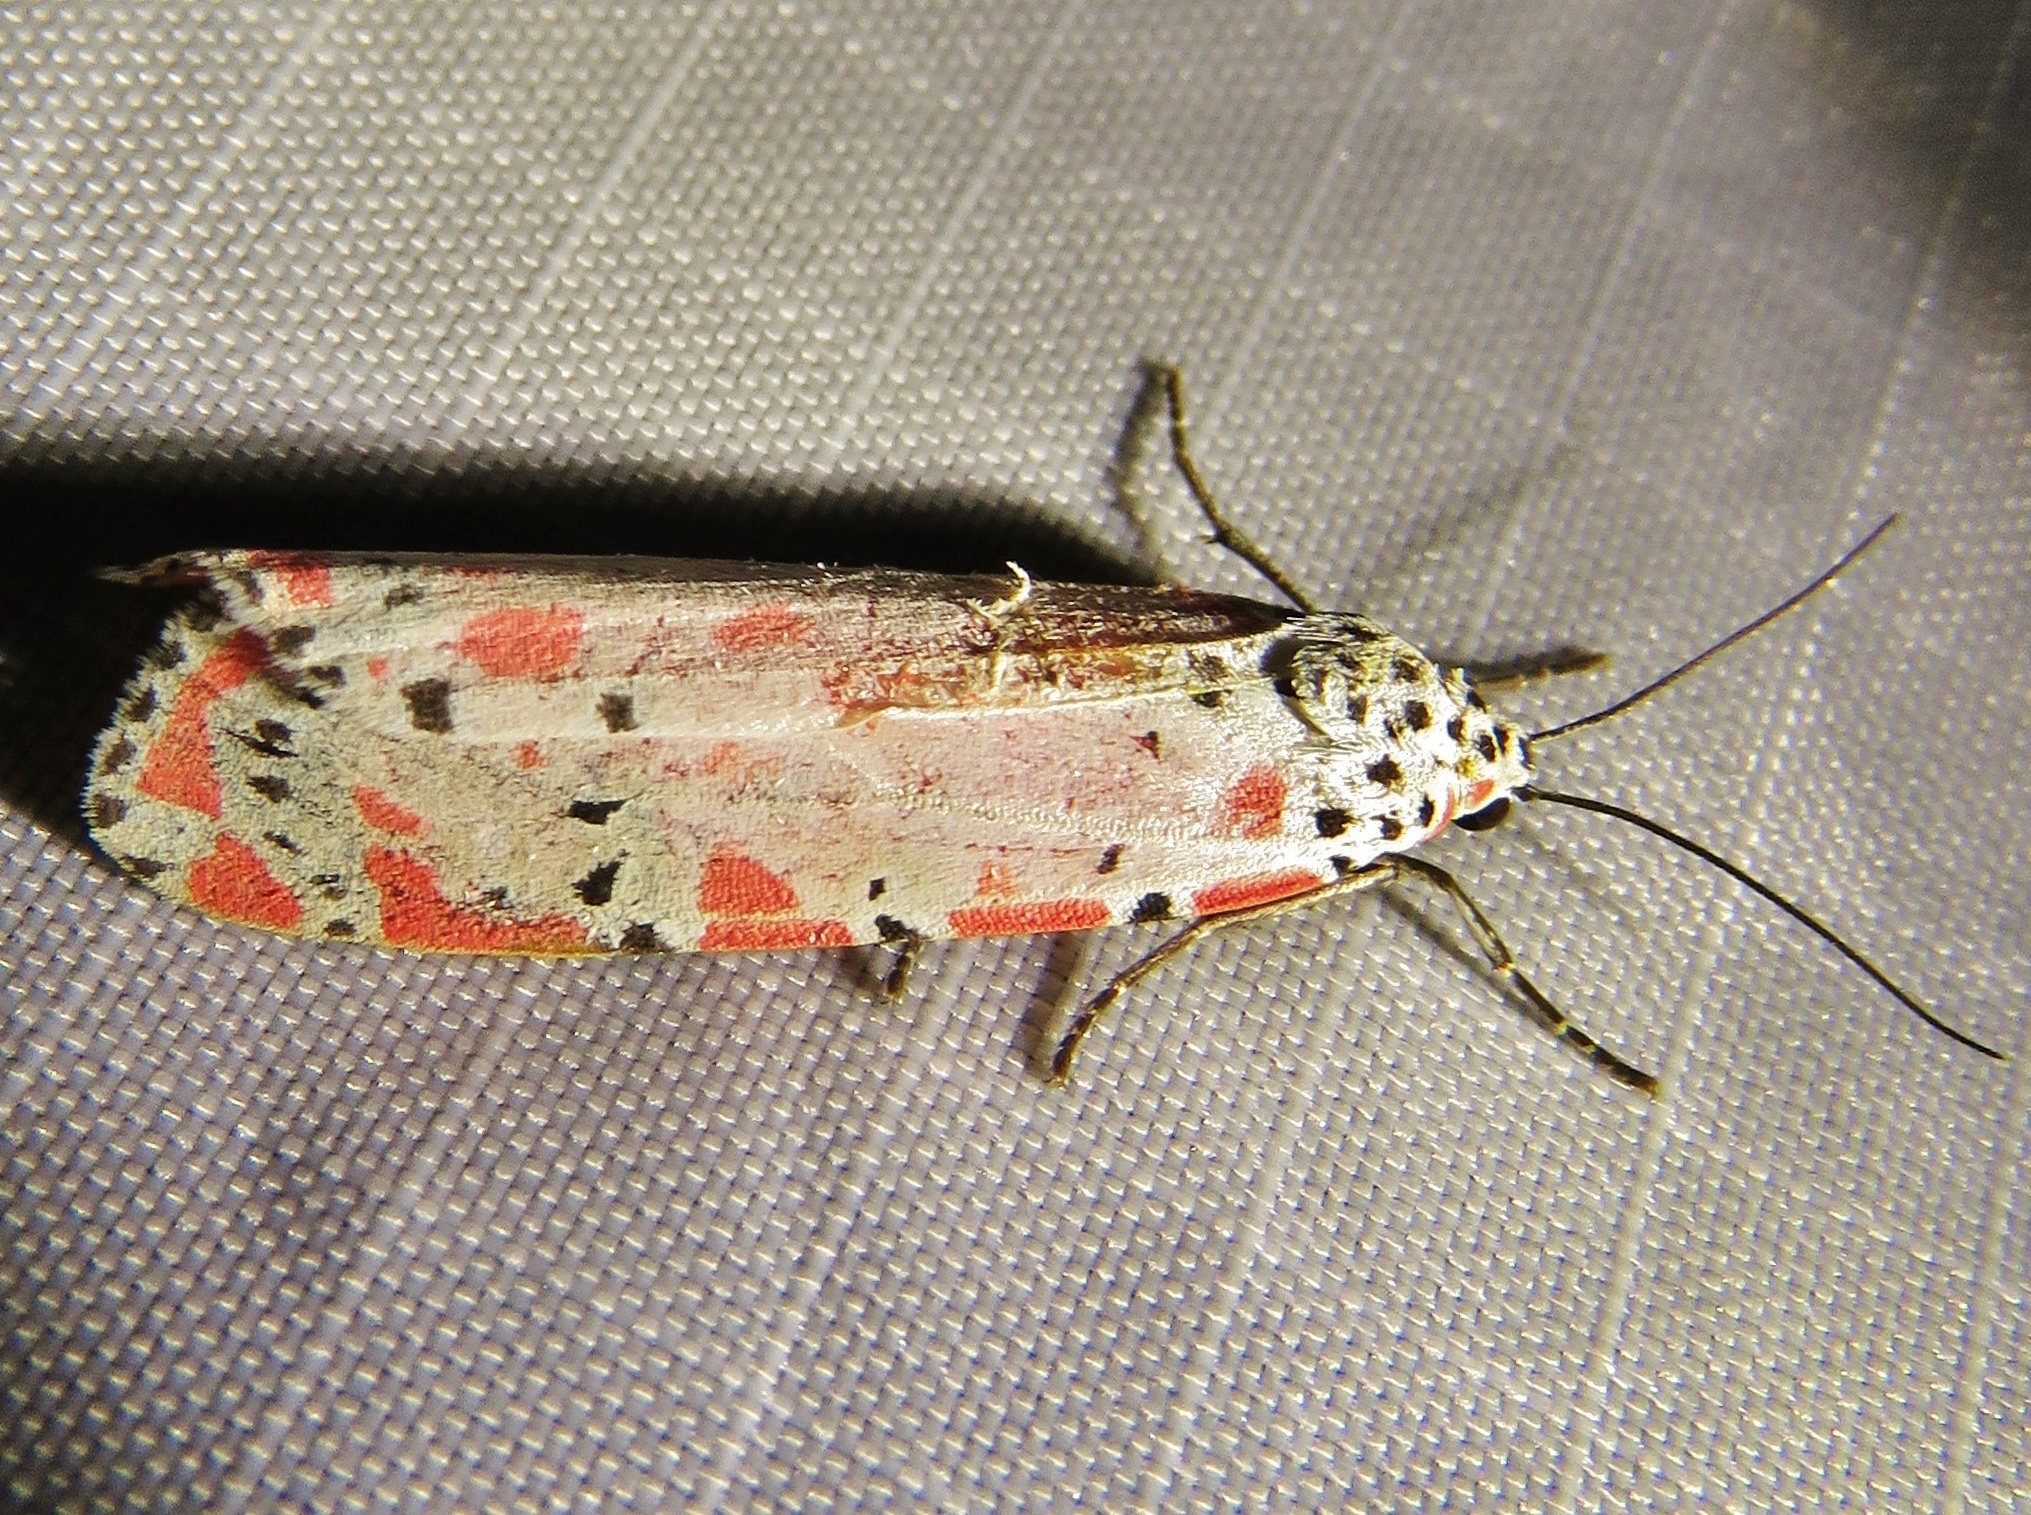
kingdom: Animalia
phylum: Arthropoda
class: Insecta
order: Lepidoptera
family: Erebidae
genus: Utetheisa
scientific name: Utetheisa ornatrix
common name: Beautiful utetheisa
